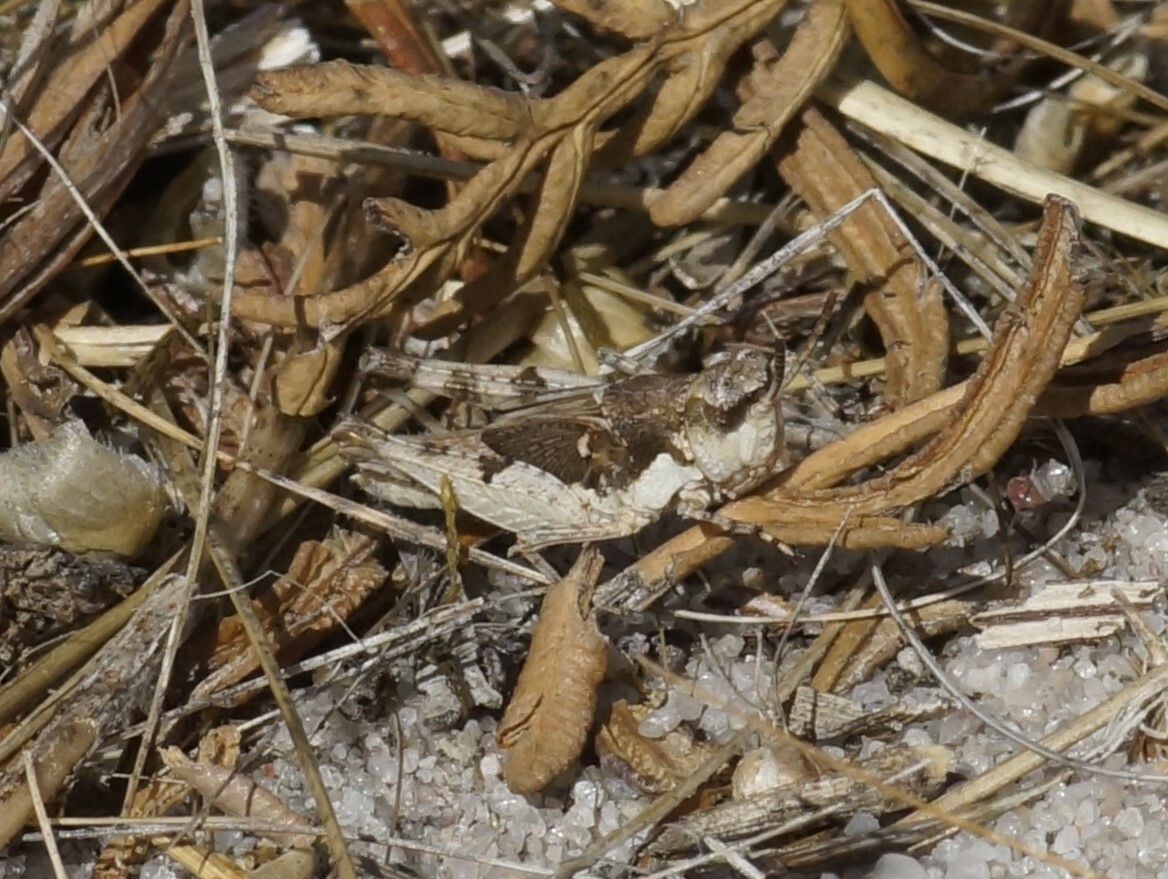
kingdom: Animalia
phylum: Arthropoda
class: Insecta
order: Orthoptera
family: Acrididae
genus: Pycnostictus
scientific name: Pycnostictus seriatus
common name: Common bandwing
